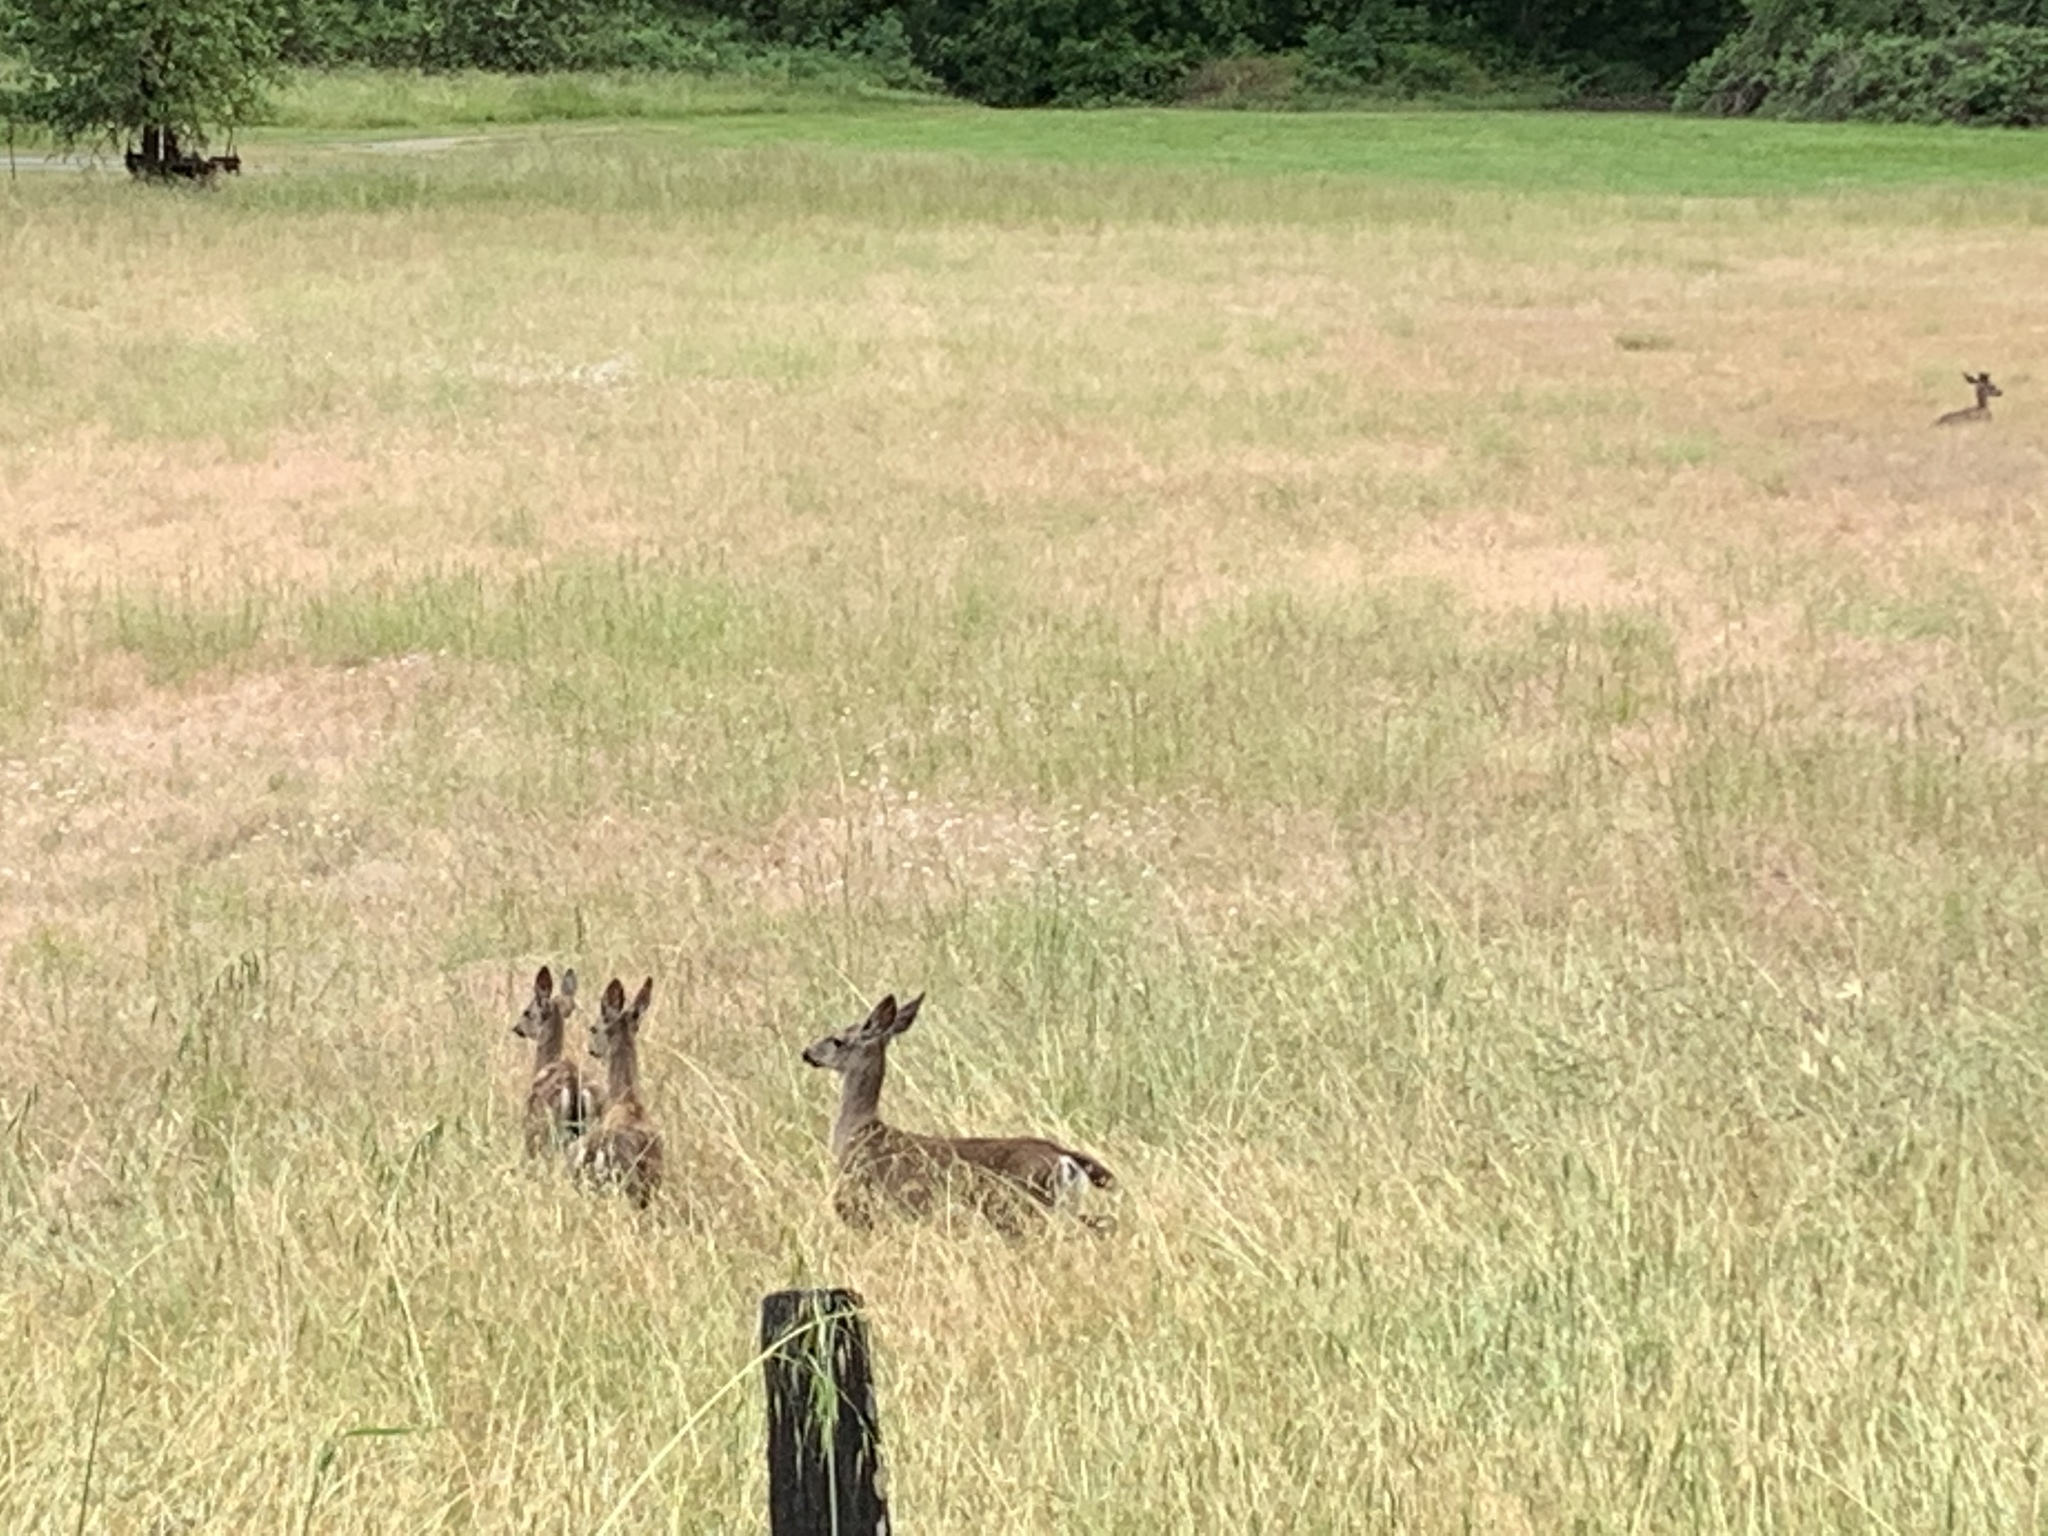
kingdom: Animalia
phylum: Chordata
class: Mammalia
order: Artiodactyla
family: Cervidae
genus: Odocoileus
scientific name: Odocoileus hemionus
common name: Mule deer
